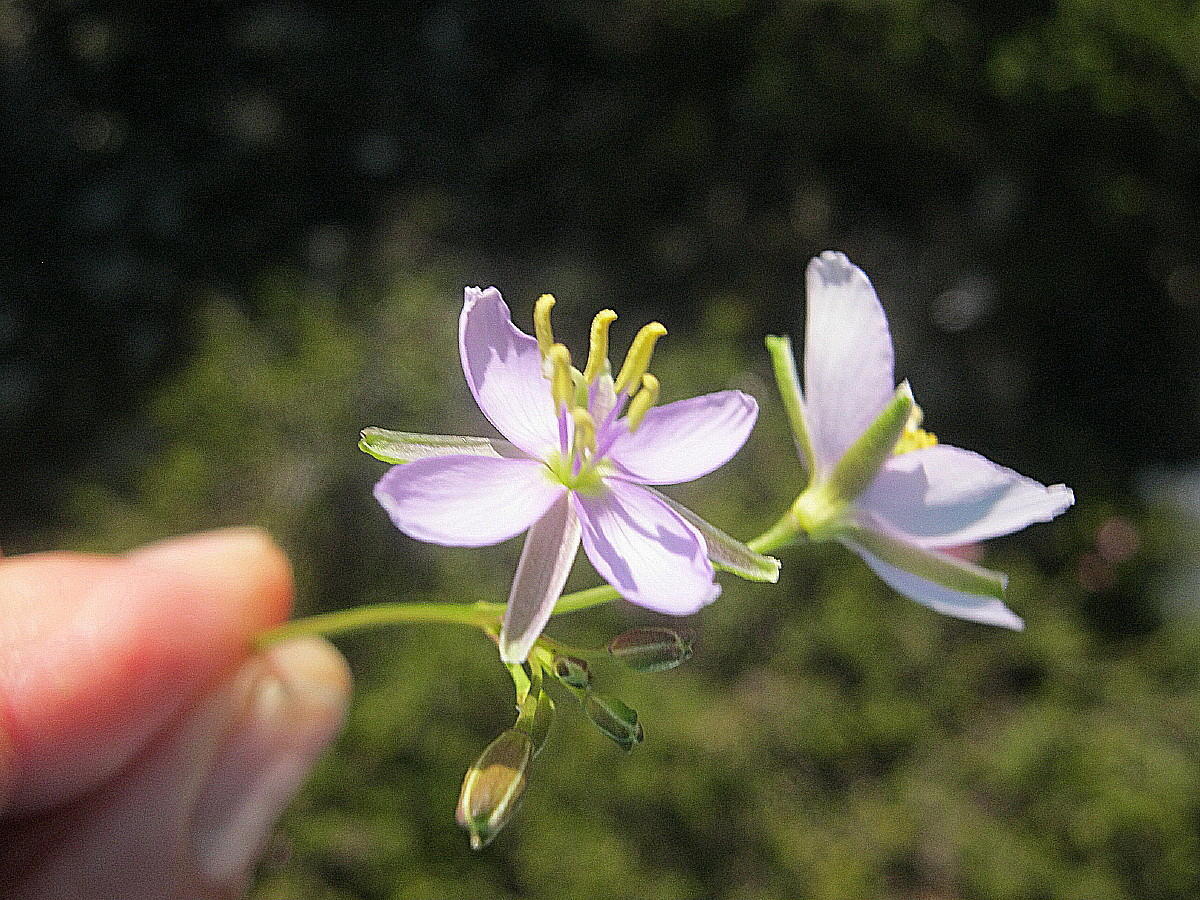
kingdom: Plantae
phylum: Tracheophyta
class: Magnoliopsida
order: Brassicales
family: Brassicaceae
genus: Heliophila
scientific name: Heliophila subulata
